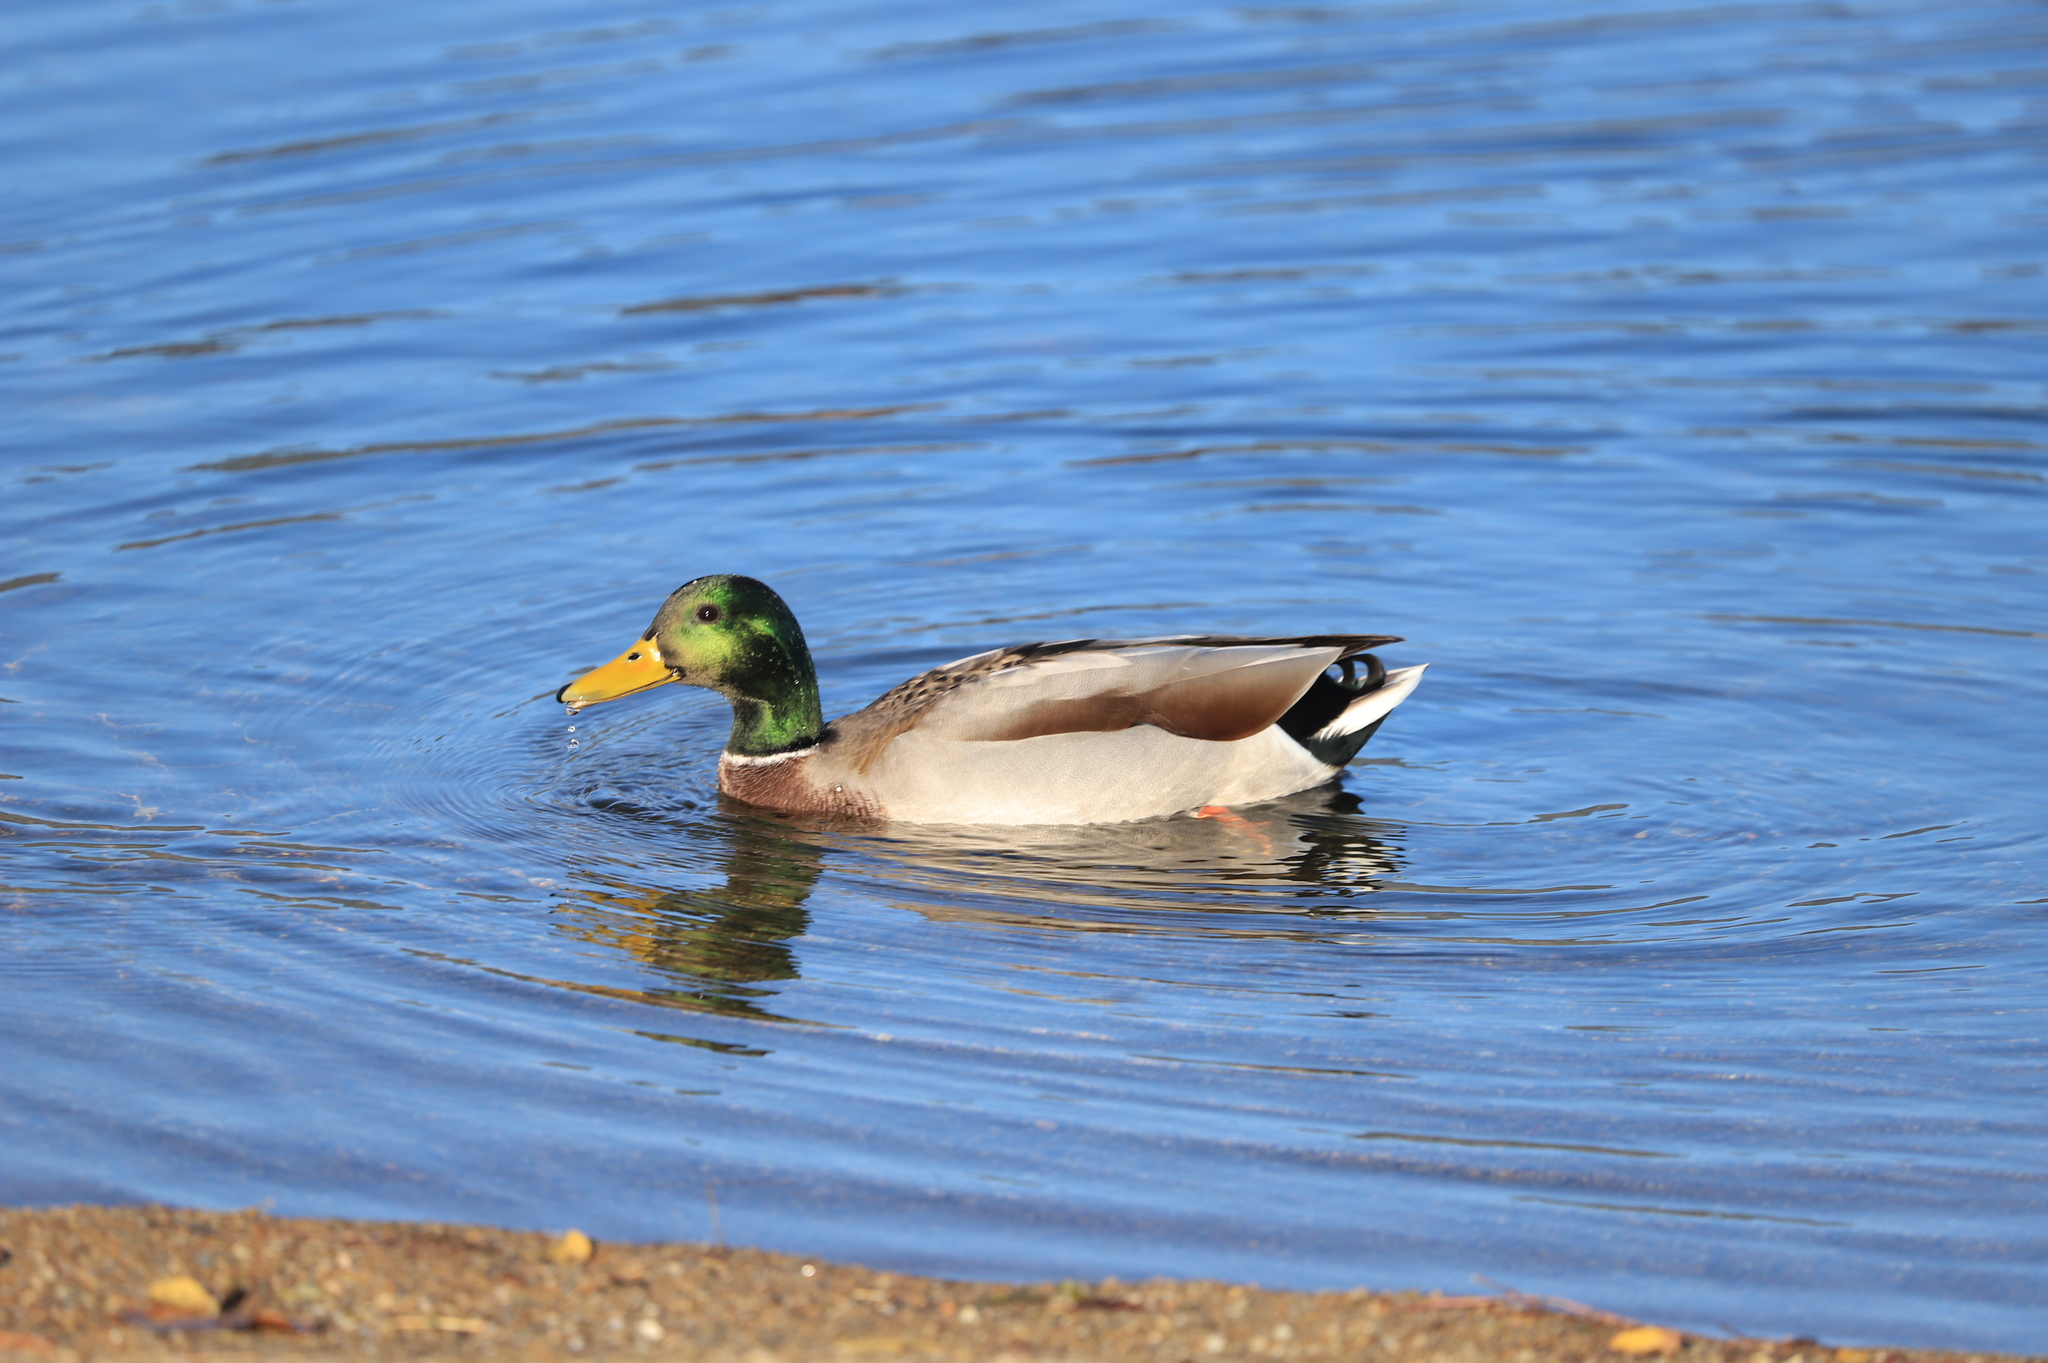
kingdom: Animalia
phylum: Chordata
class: Aves
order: Anseriformes
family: Anatidae
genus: Anas
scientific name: Anas platyrhynchos
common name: Mallard
